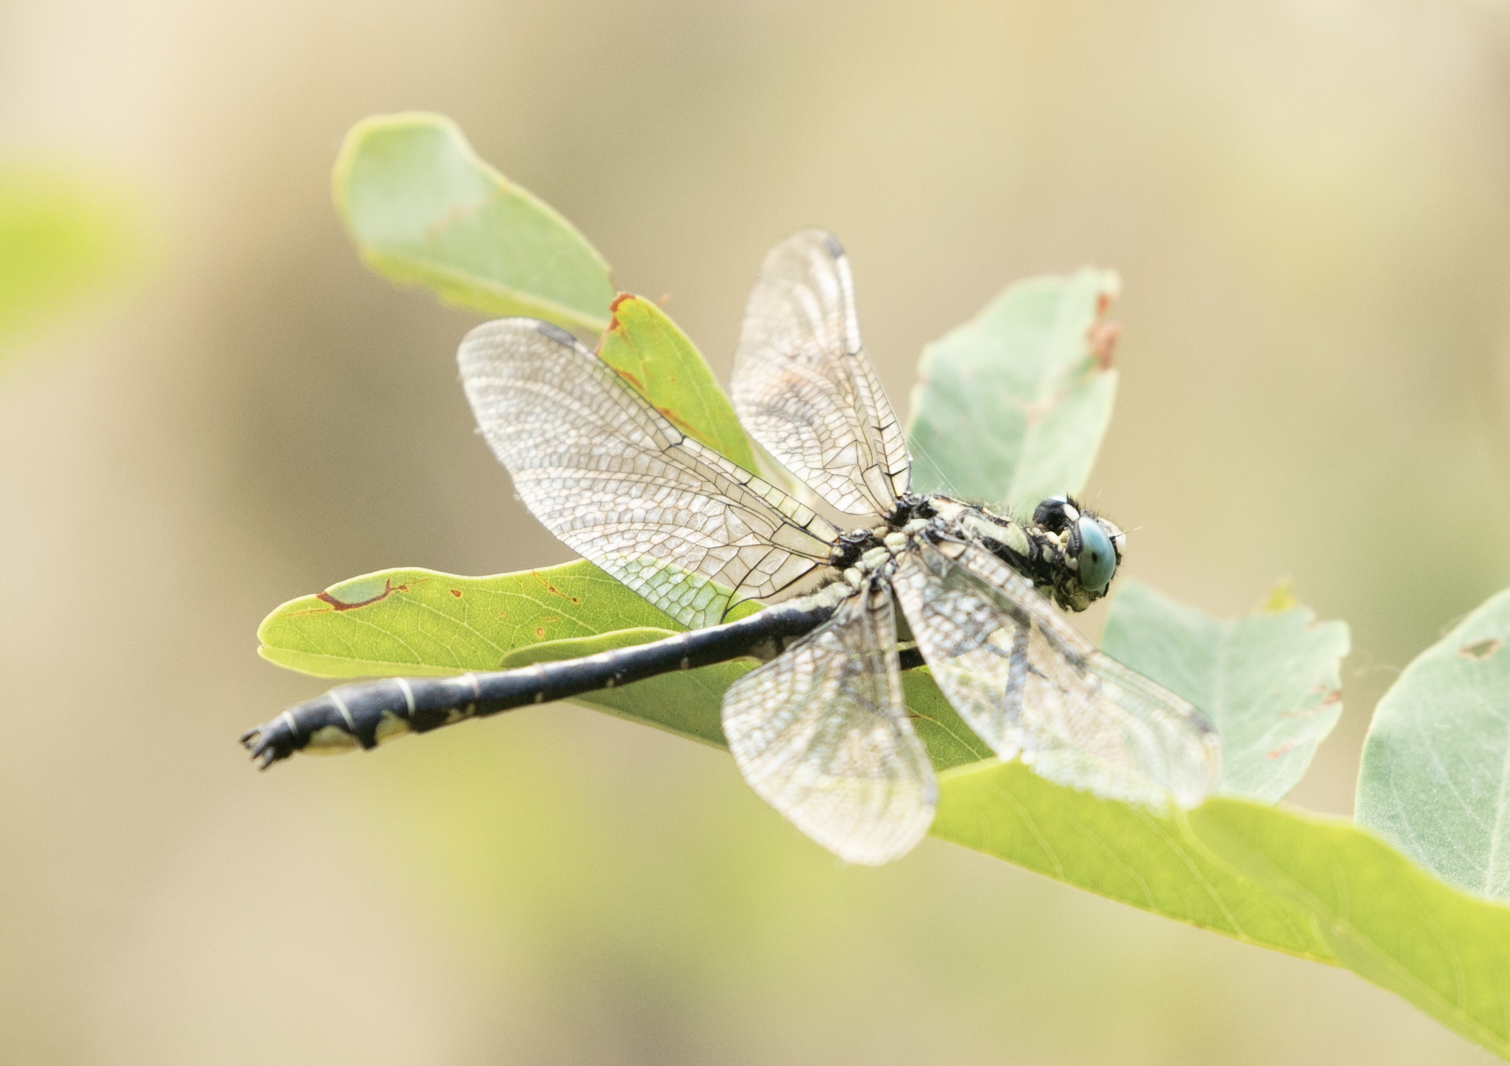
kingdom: Animalia
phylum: Arthropoda
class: Insecta
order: Odonata
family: Gomphidae
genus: Gomphus
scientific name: Gomphus vulgatissimus
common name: Club-tailed dragonfly
